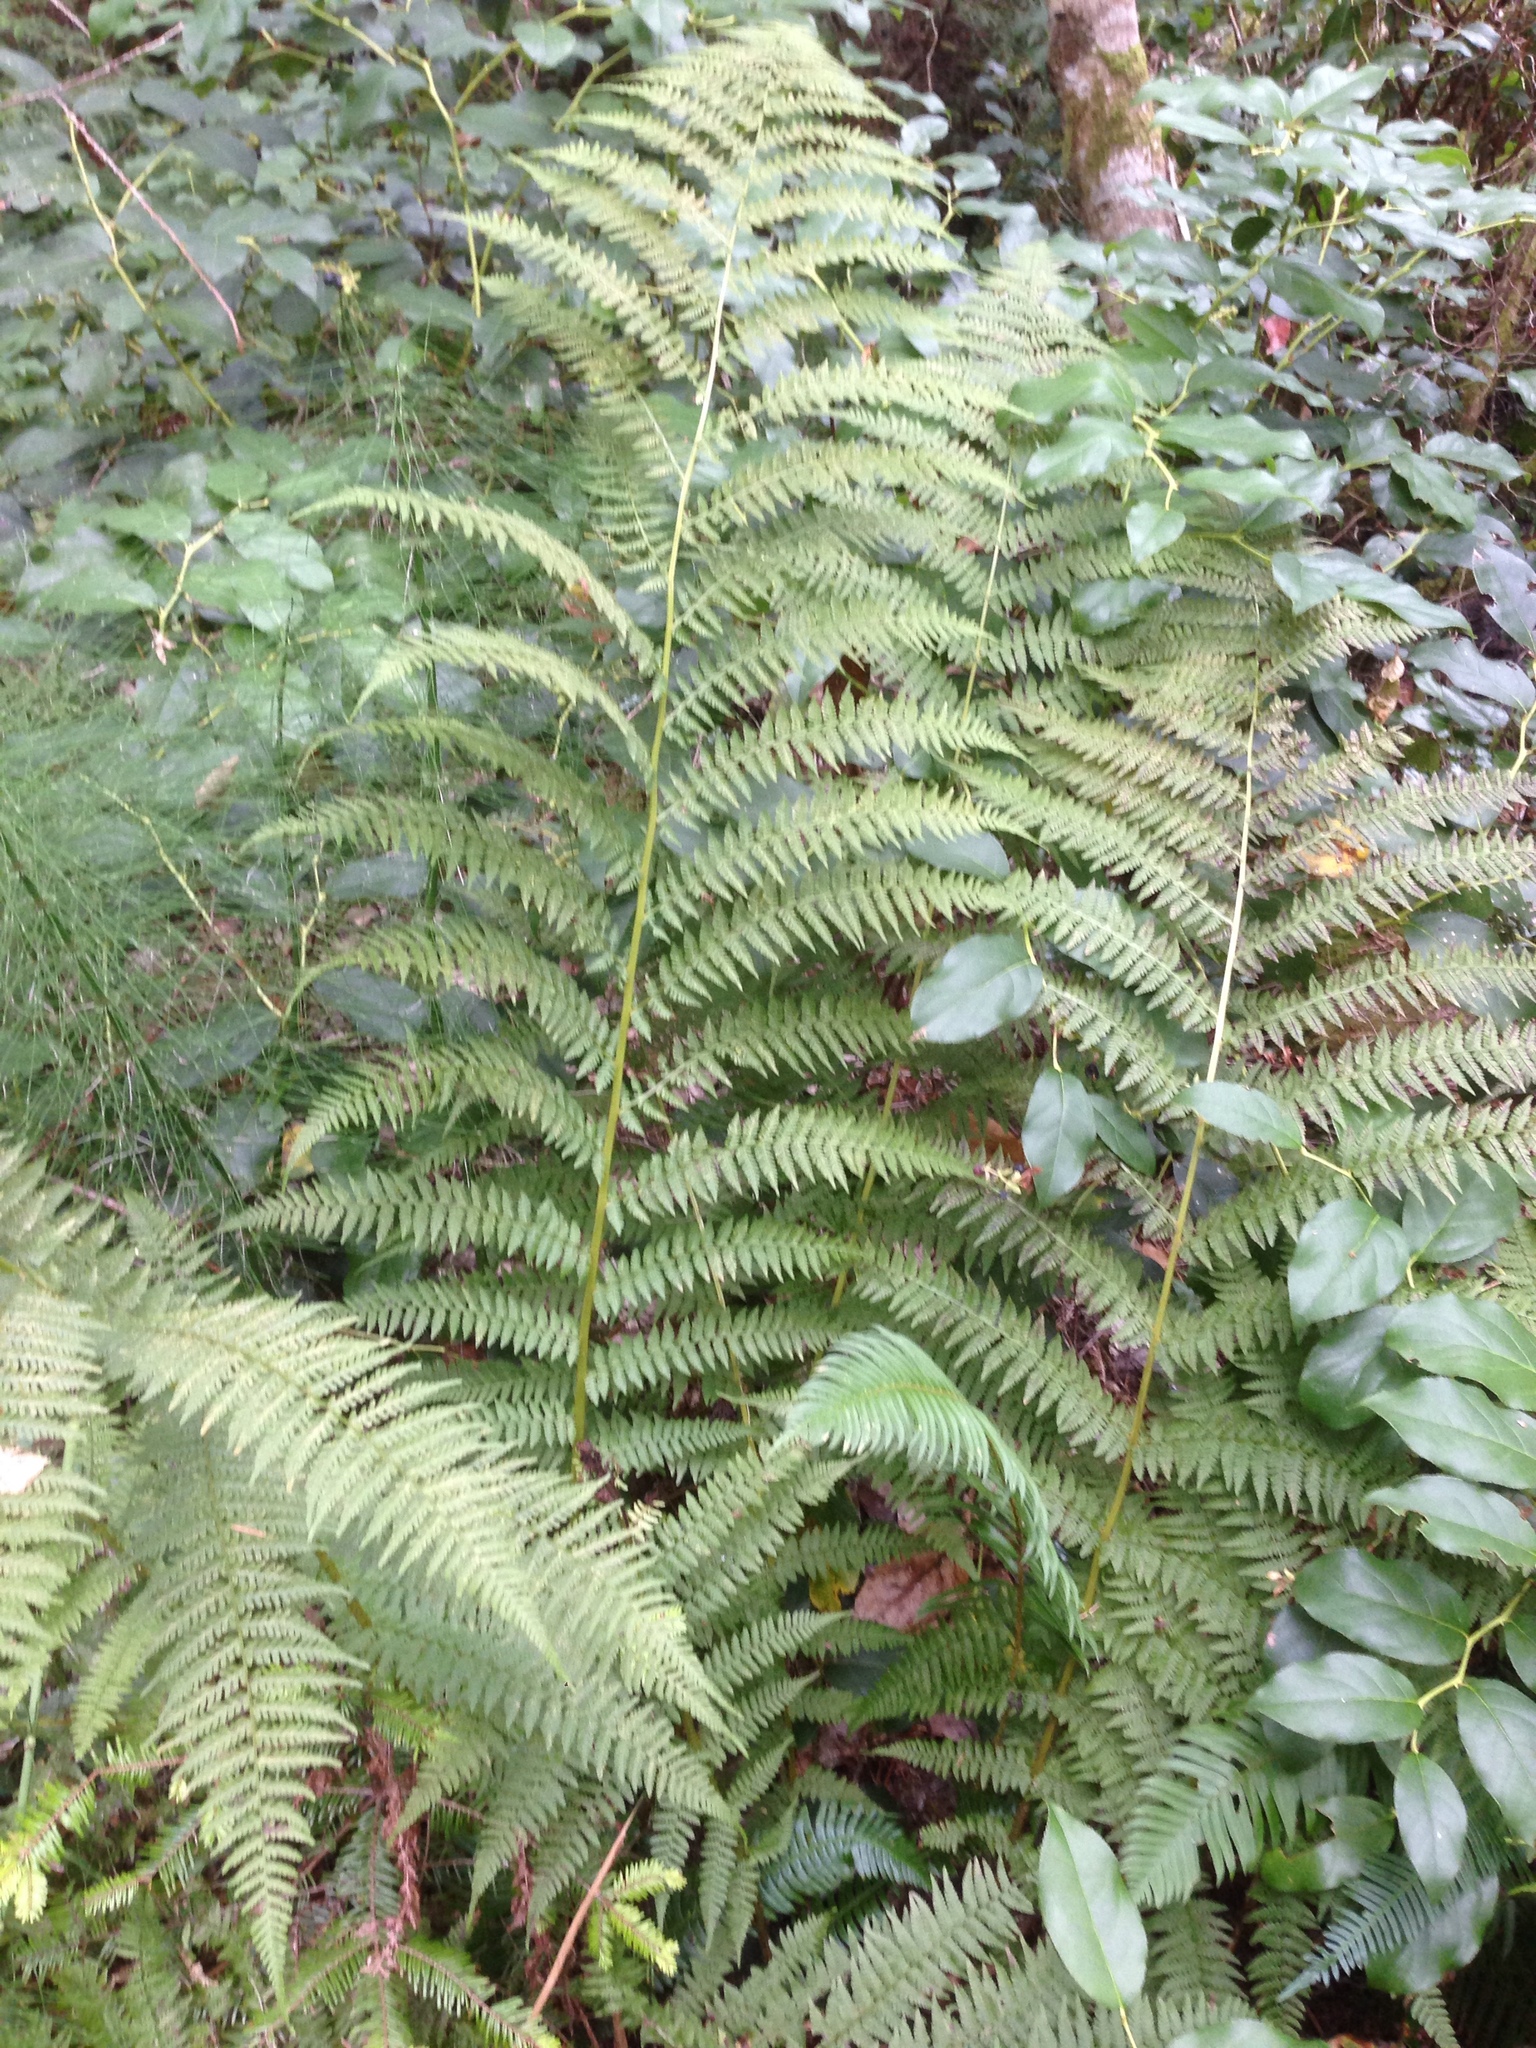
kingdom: Plantae
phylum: Tracheophyta
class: Polypodiopsida
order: Polypodiales
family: Athyriaceae
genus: Athyrium
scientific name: Athyrium filix-femina
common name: Lady fern
